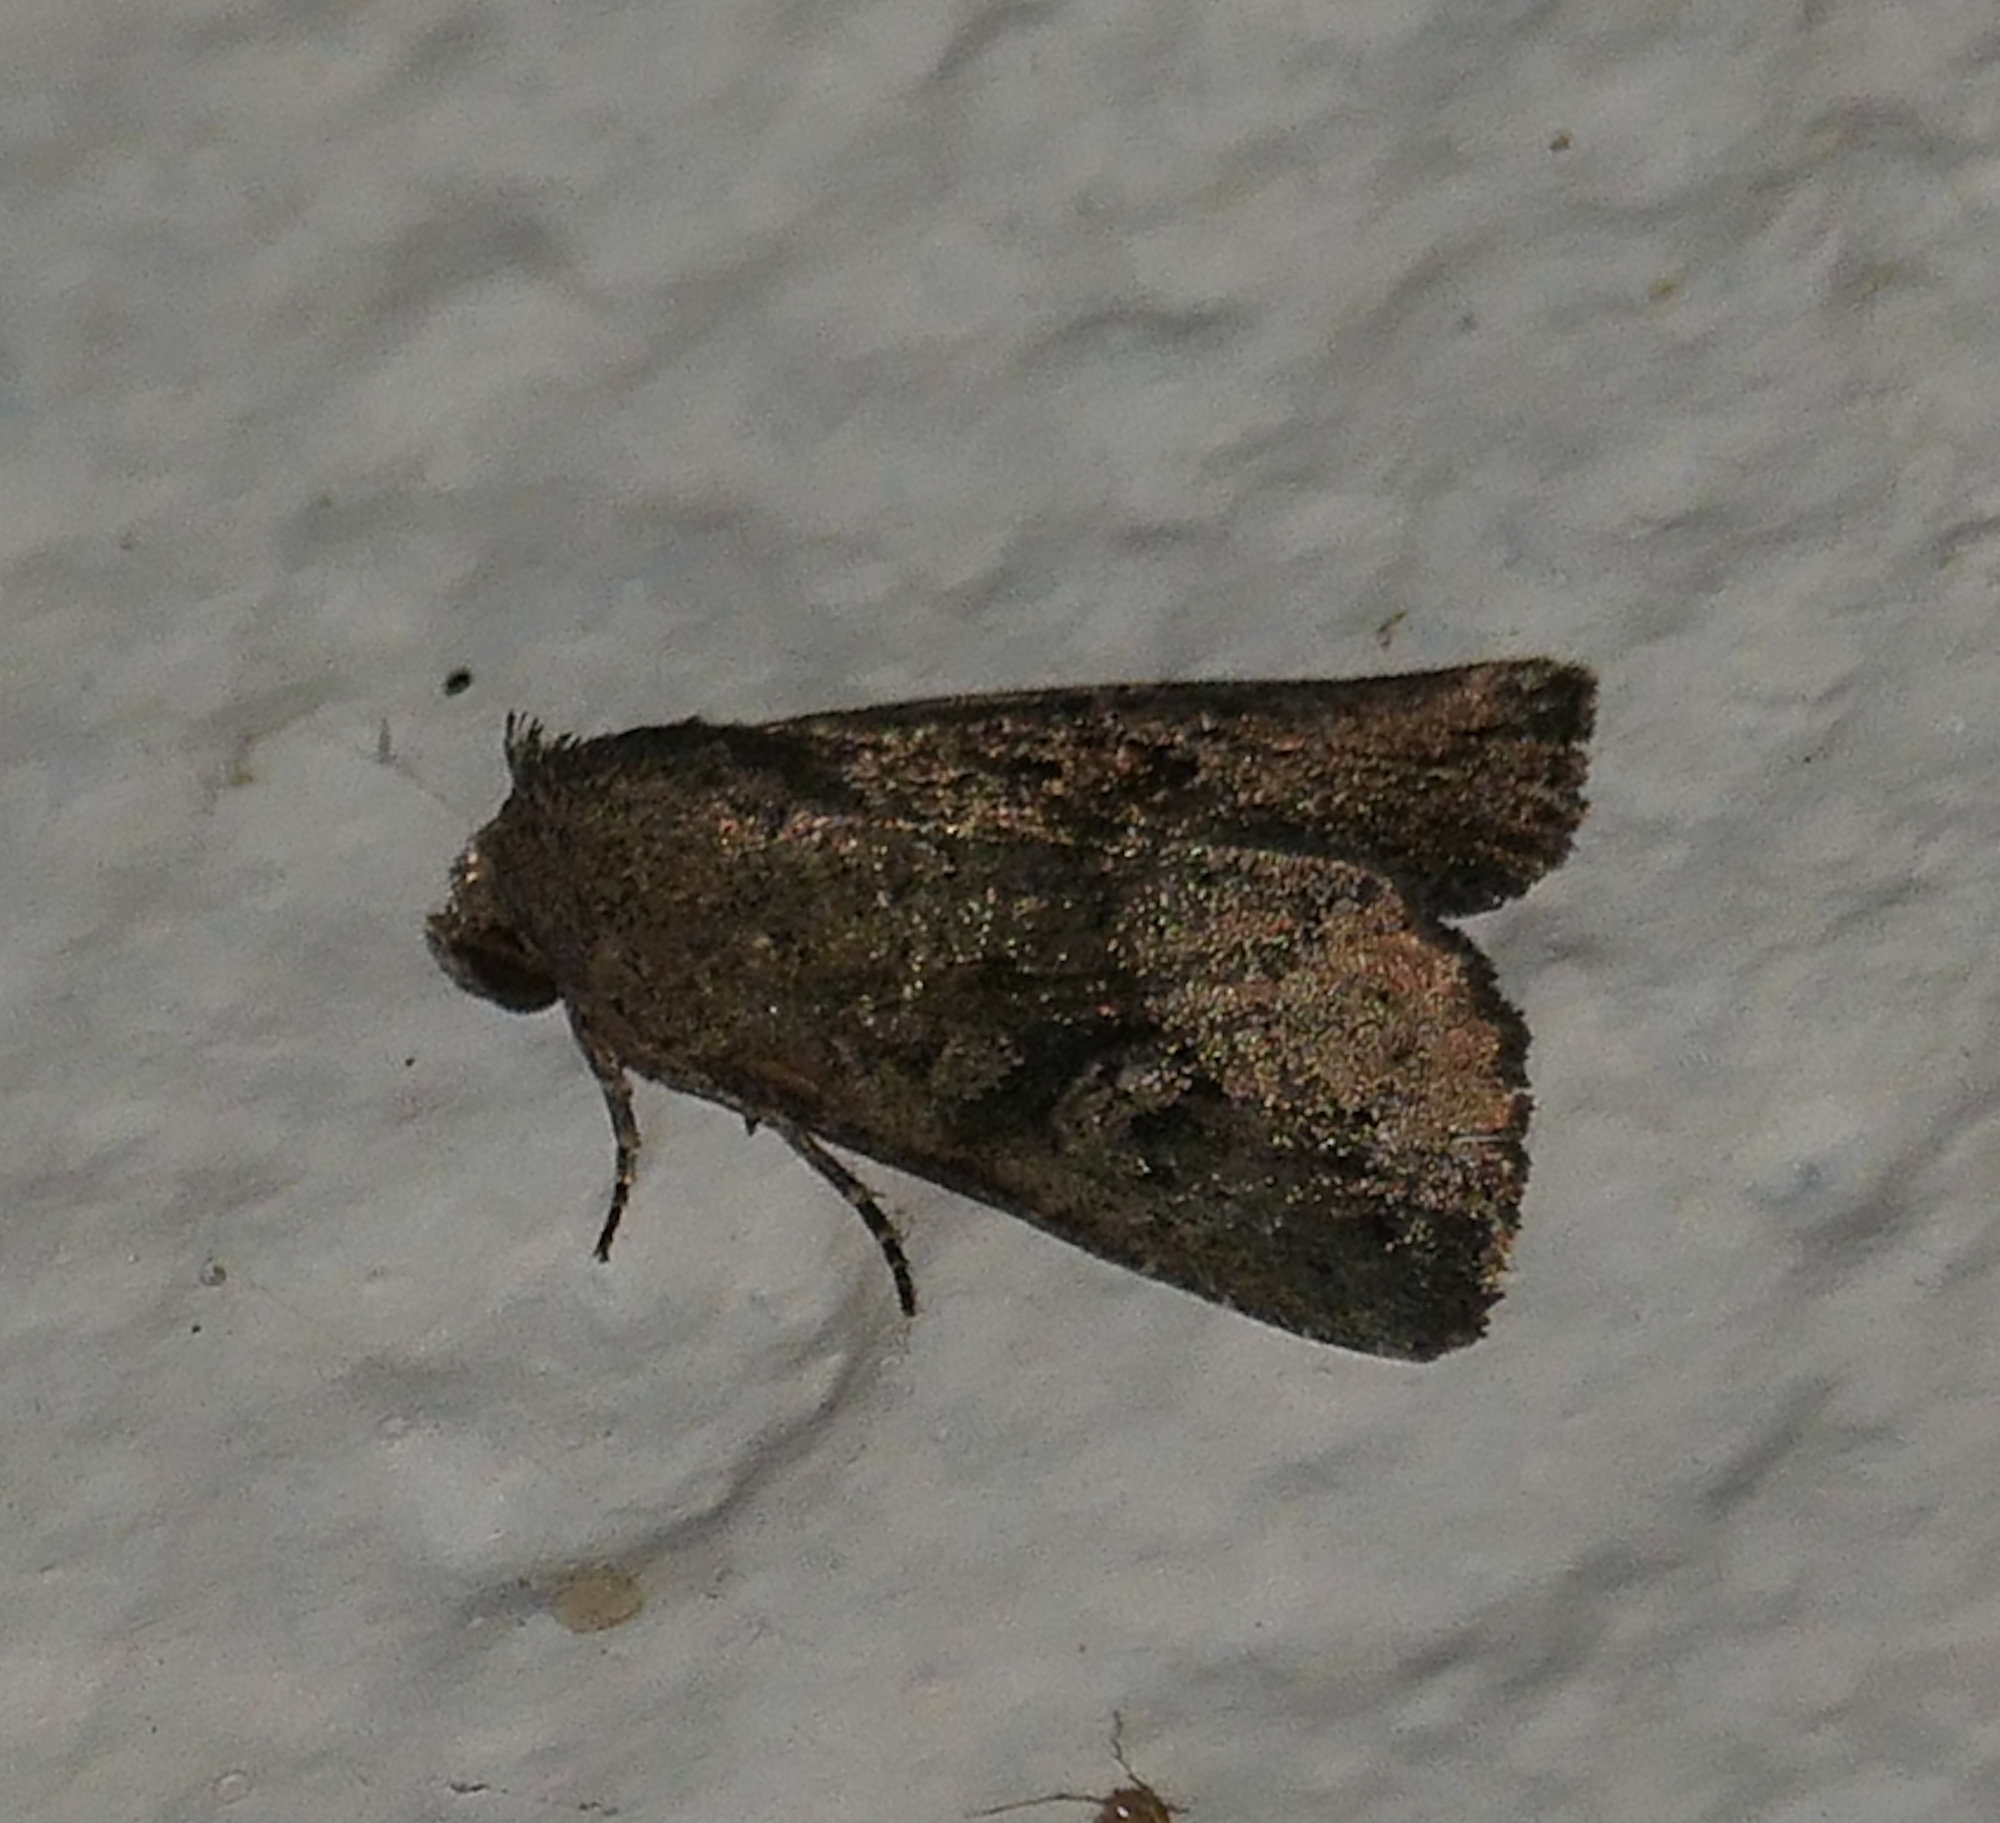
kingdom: Animalia
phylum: Arthropoda
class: Insecta
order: Lepidoptera
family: Noctuidae
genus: Condica
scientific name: Condica sutor
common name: Cobbler moth
